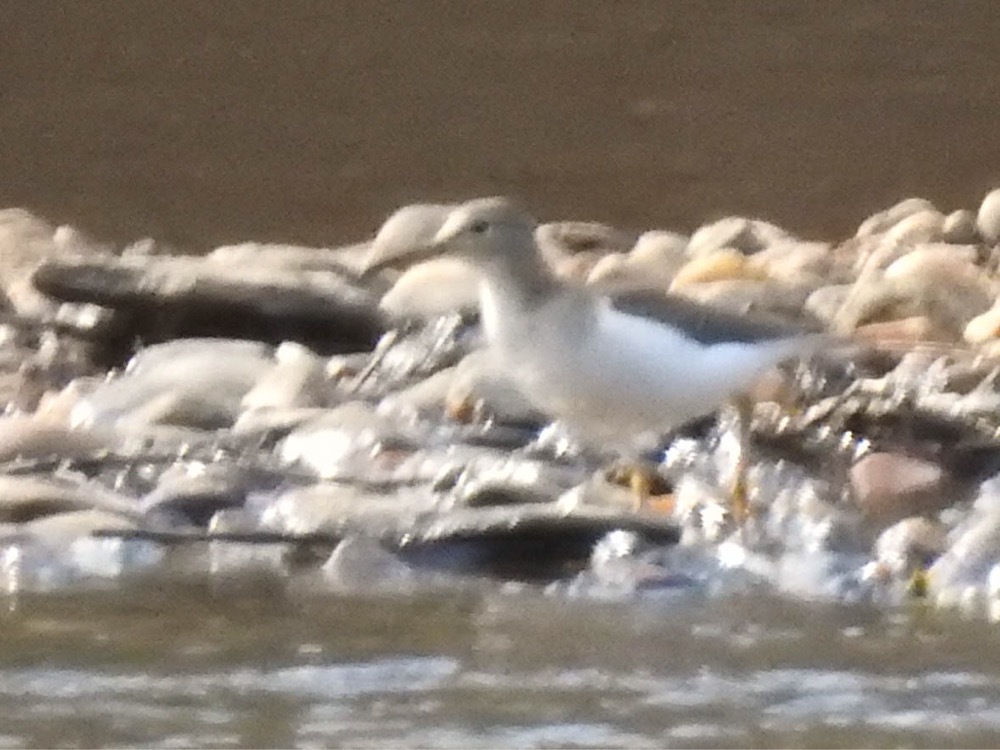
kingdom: Animalia
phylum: Chordata
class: Aves
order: Charadriiformes
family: Scolopacidae
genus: Actitis
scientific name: Actitis macularius
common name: Spotted sandpiper
